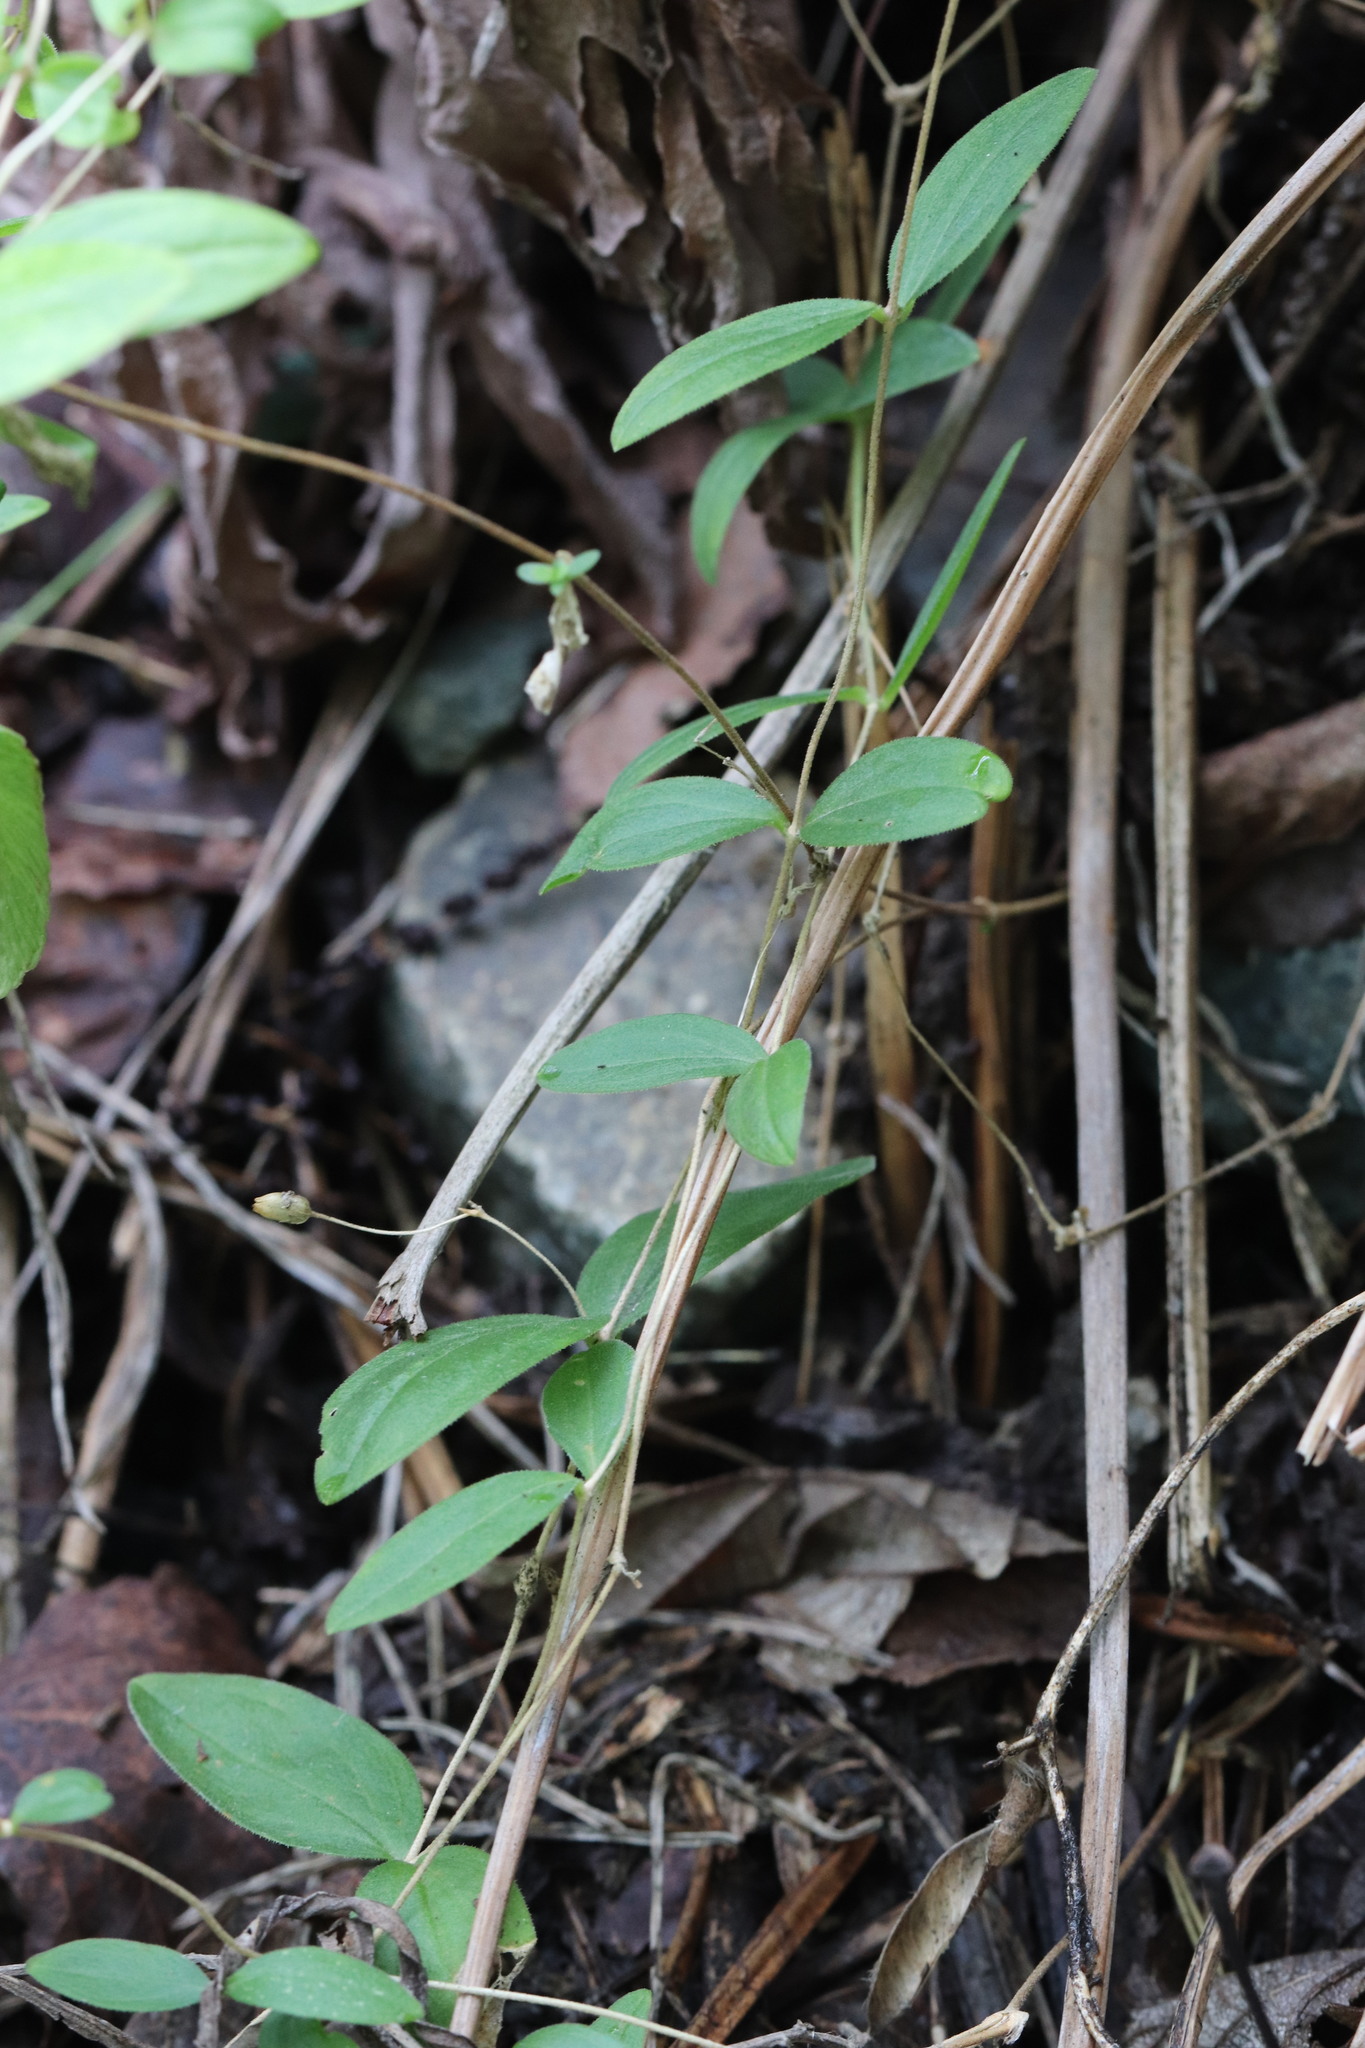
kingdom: Plantae
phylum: Tracheophyta
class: Magnoliopsida
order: Caryophyllales
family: Caryophyllaceae
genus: Moehringia
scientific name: Moehringia lateriflora
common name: Blunt-leaved sandwort
